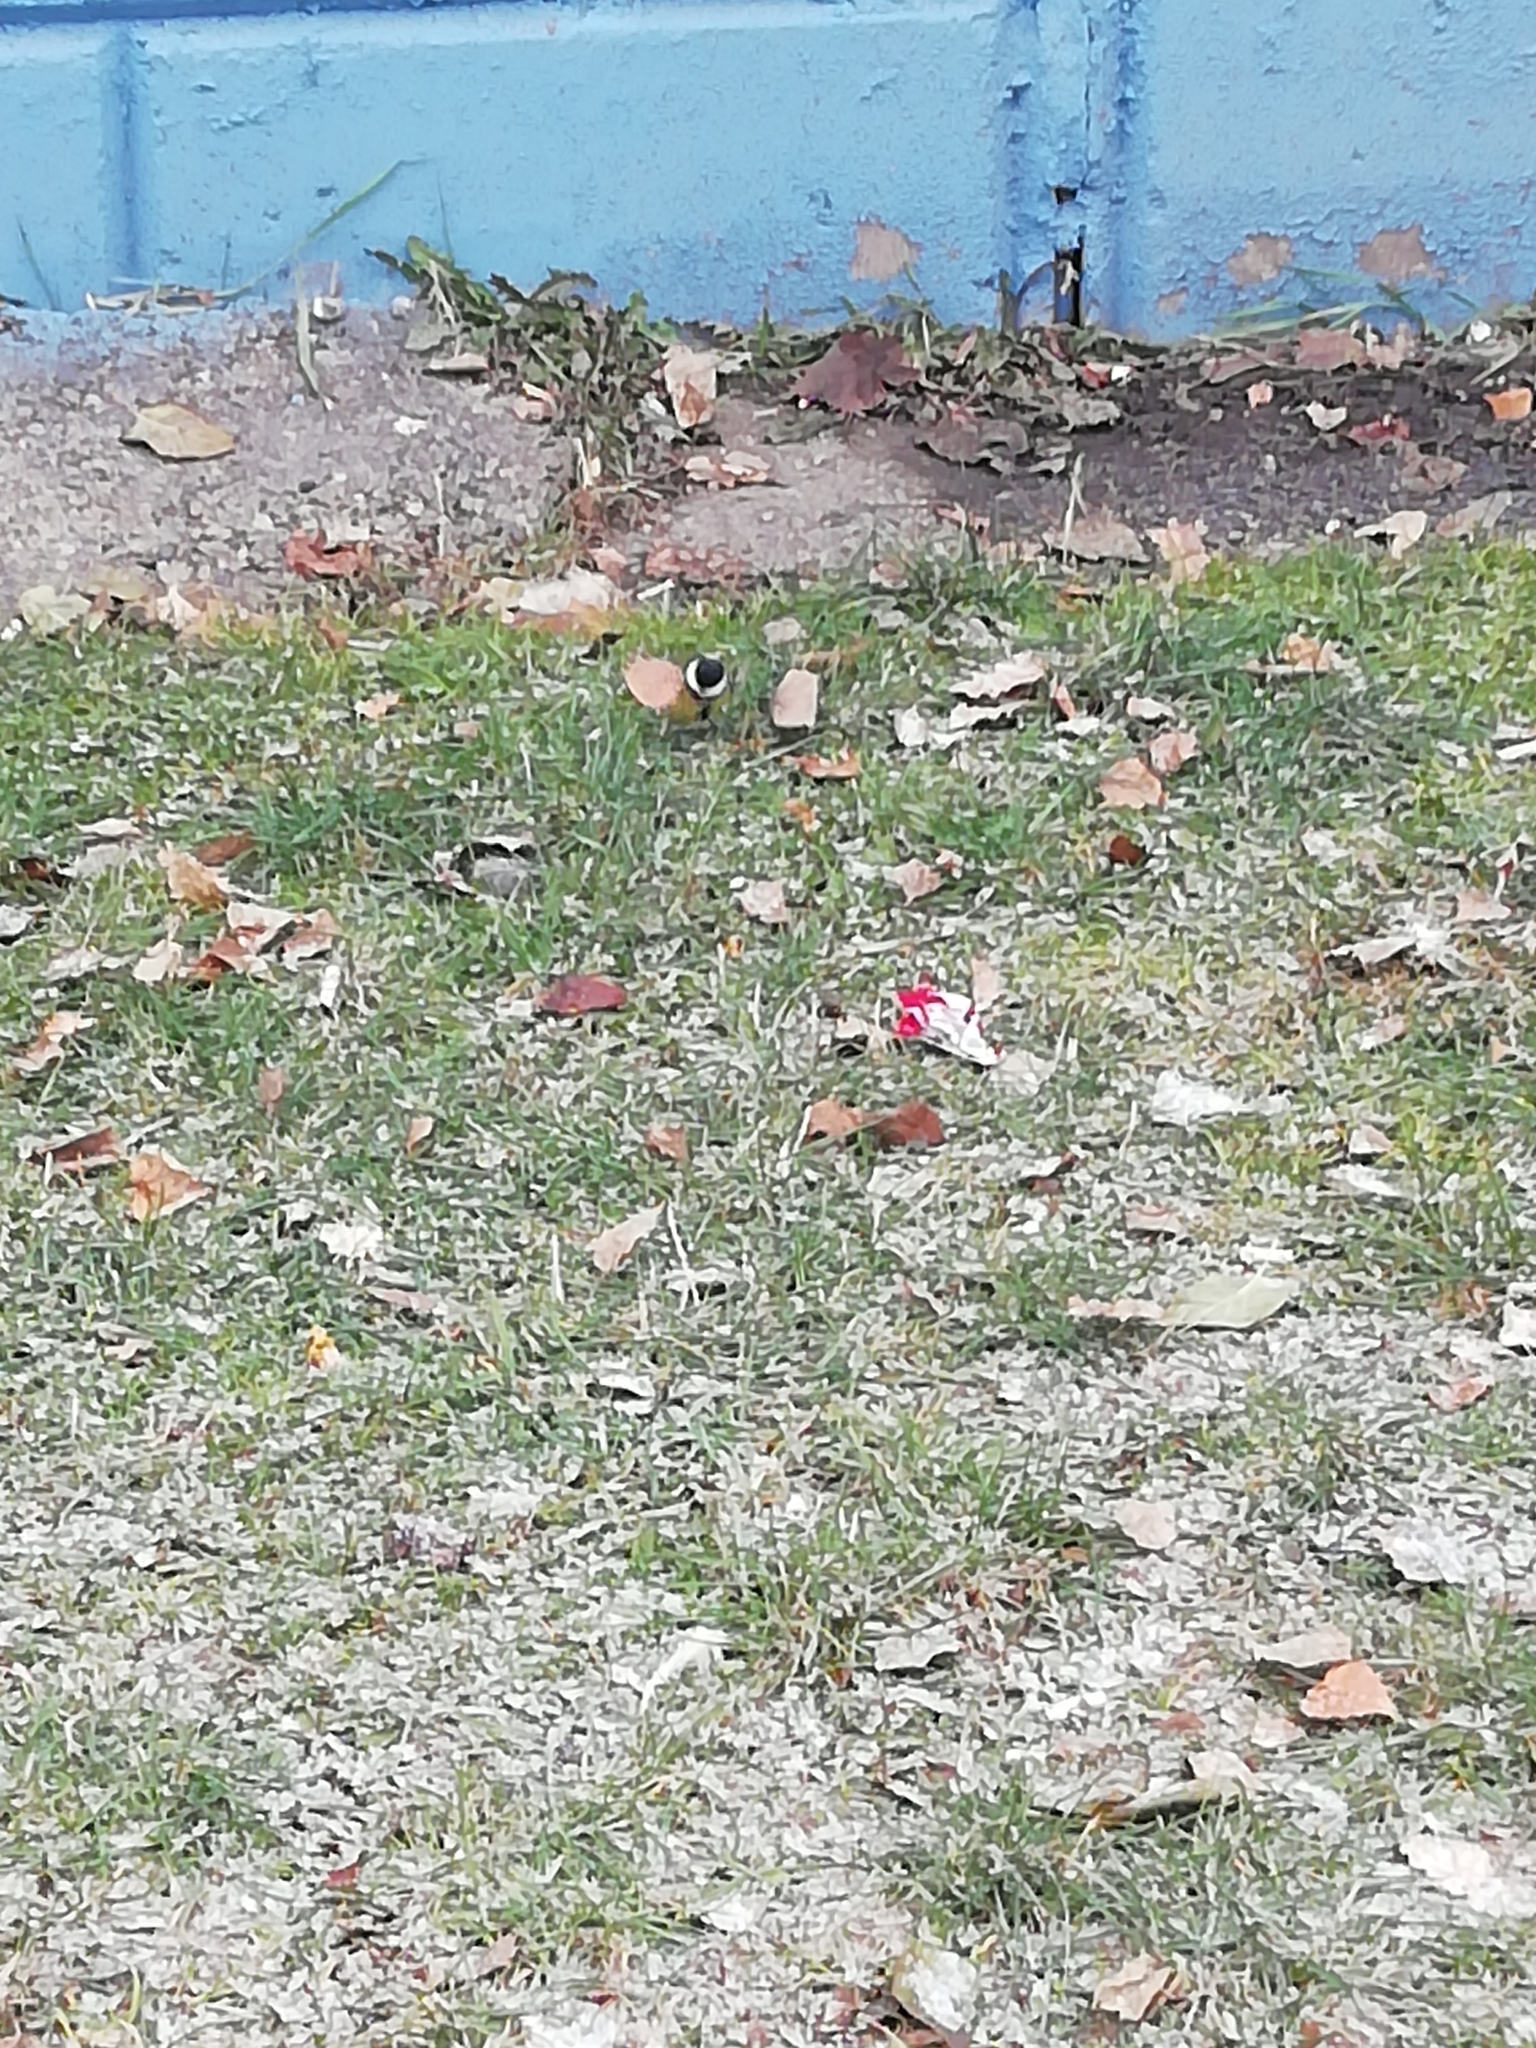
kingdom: Animalia
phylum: Chordata
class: Aves
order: Passeriformes
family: Paridae
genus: Parus
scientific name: Parus major
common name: Great tit
